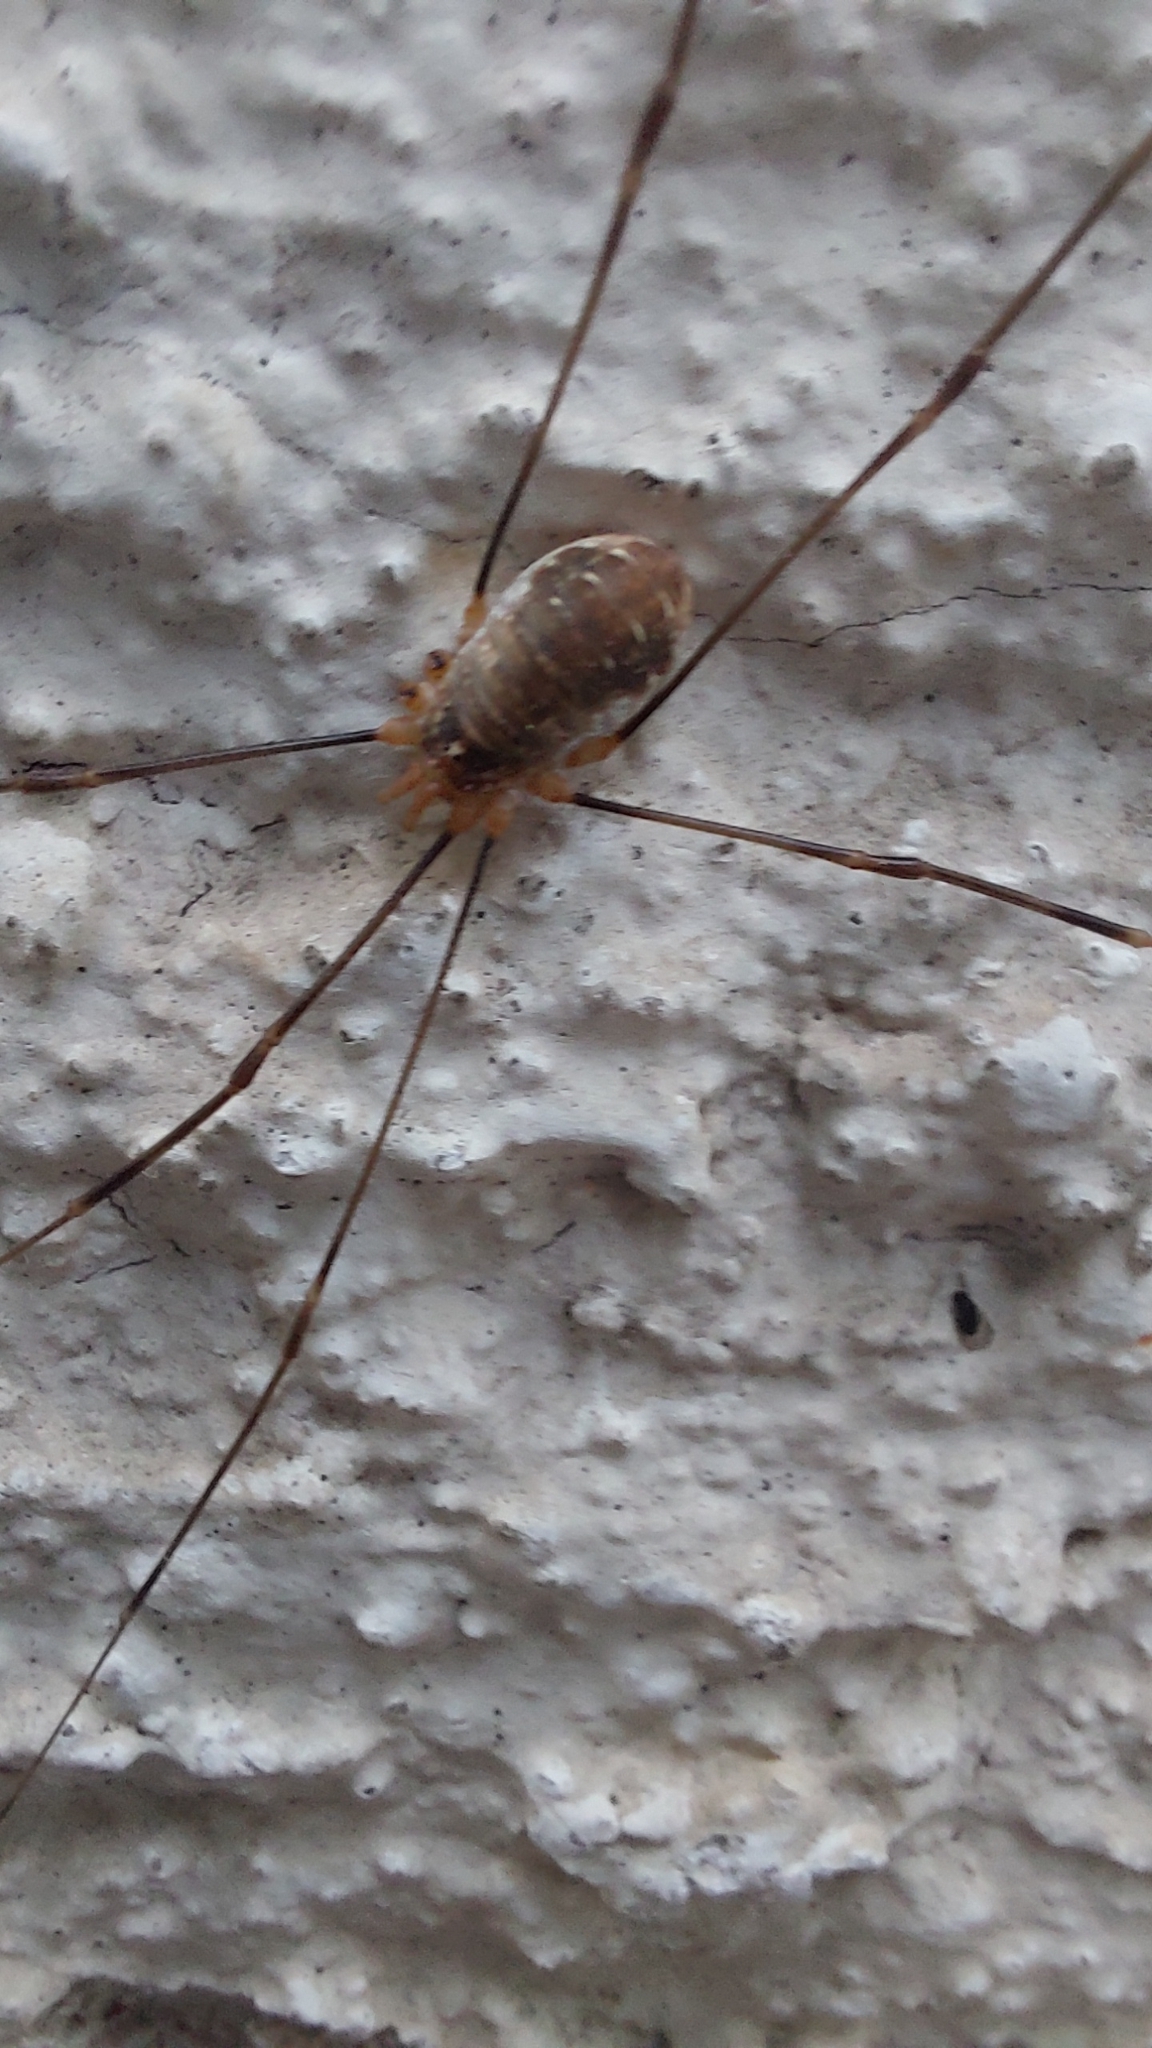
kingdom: Animalia
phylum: Arthropoda
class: Arachnida
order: Opiliones
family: Phalangiidae
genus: Opilio
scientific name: Opilio canestrinii
